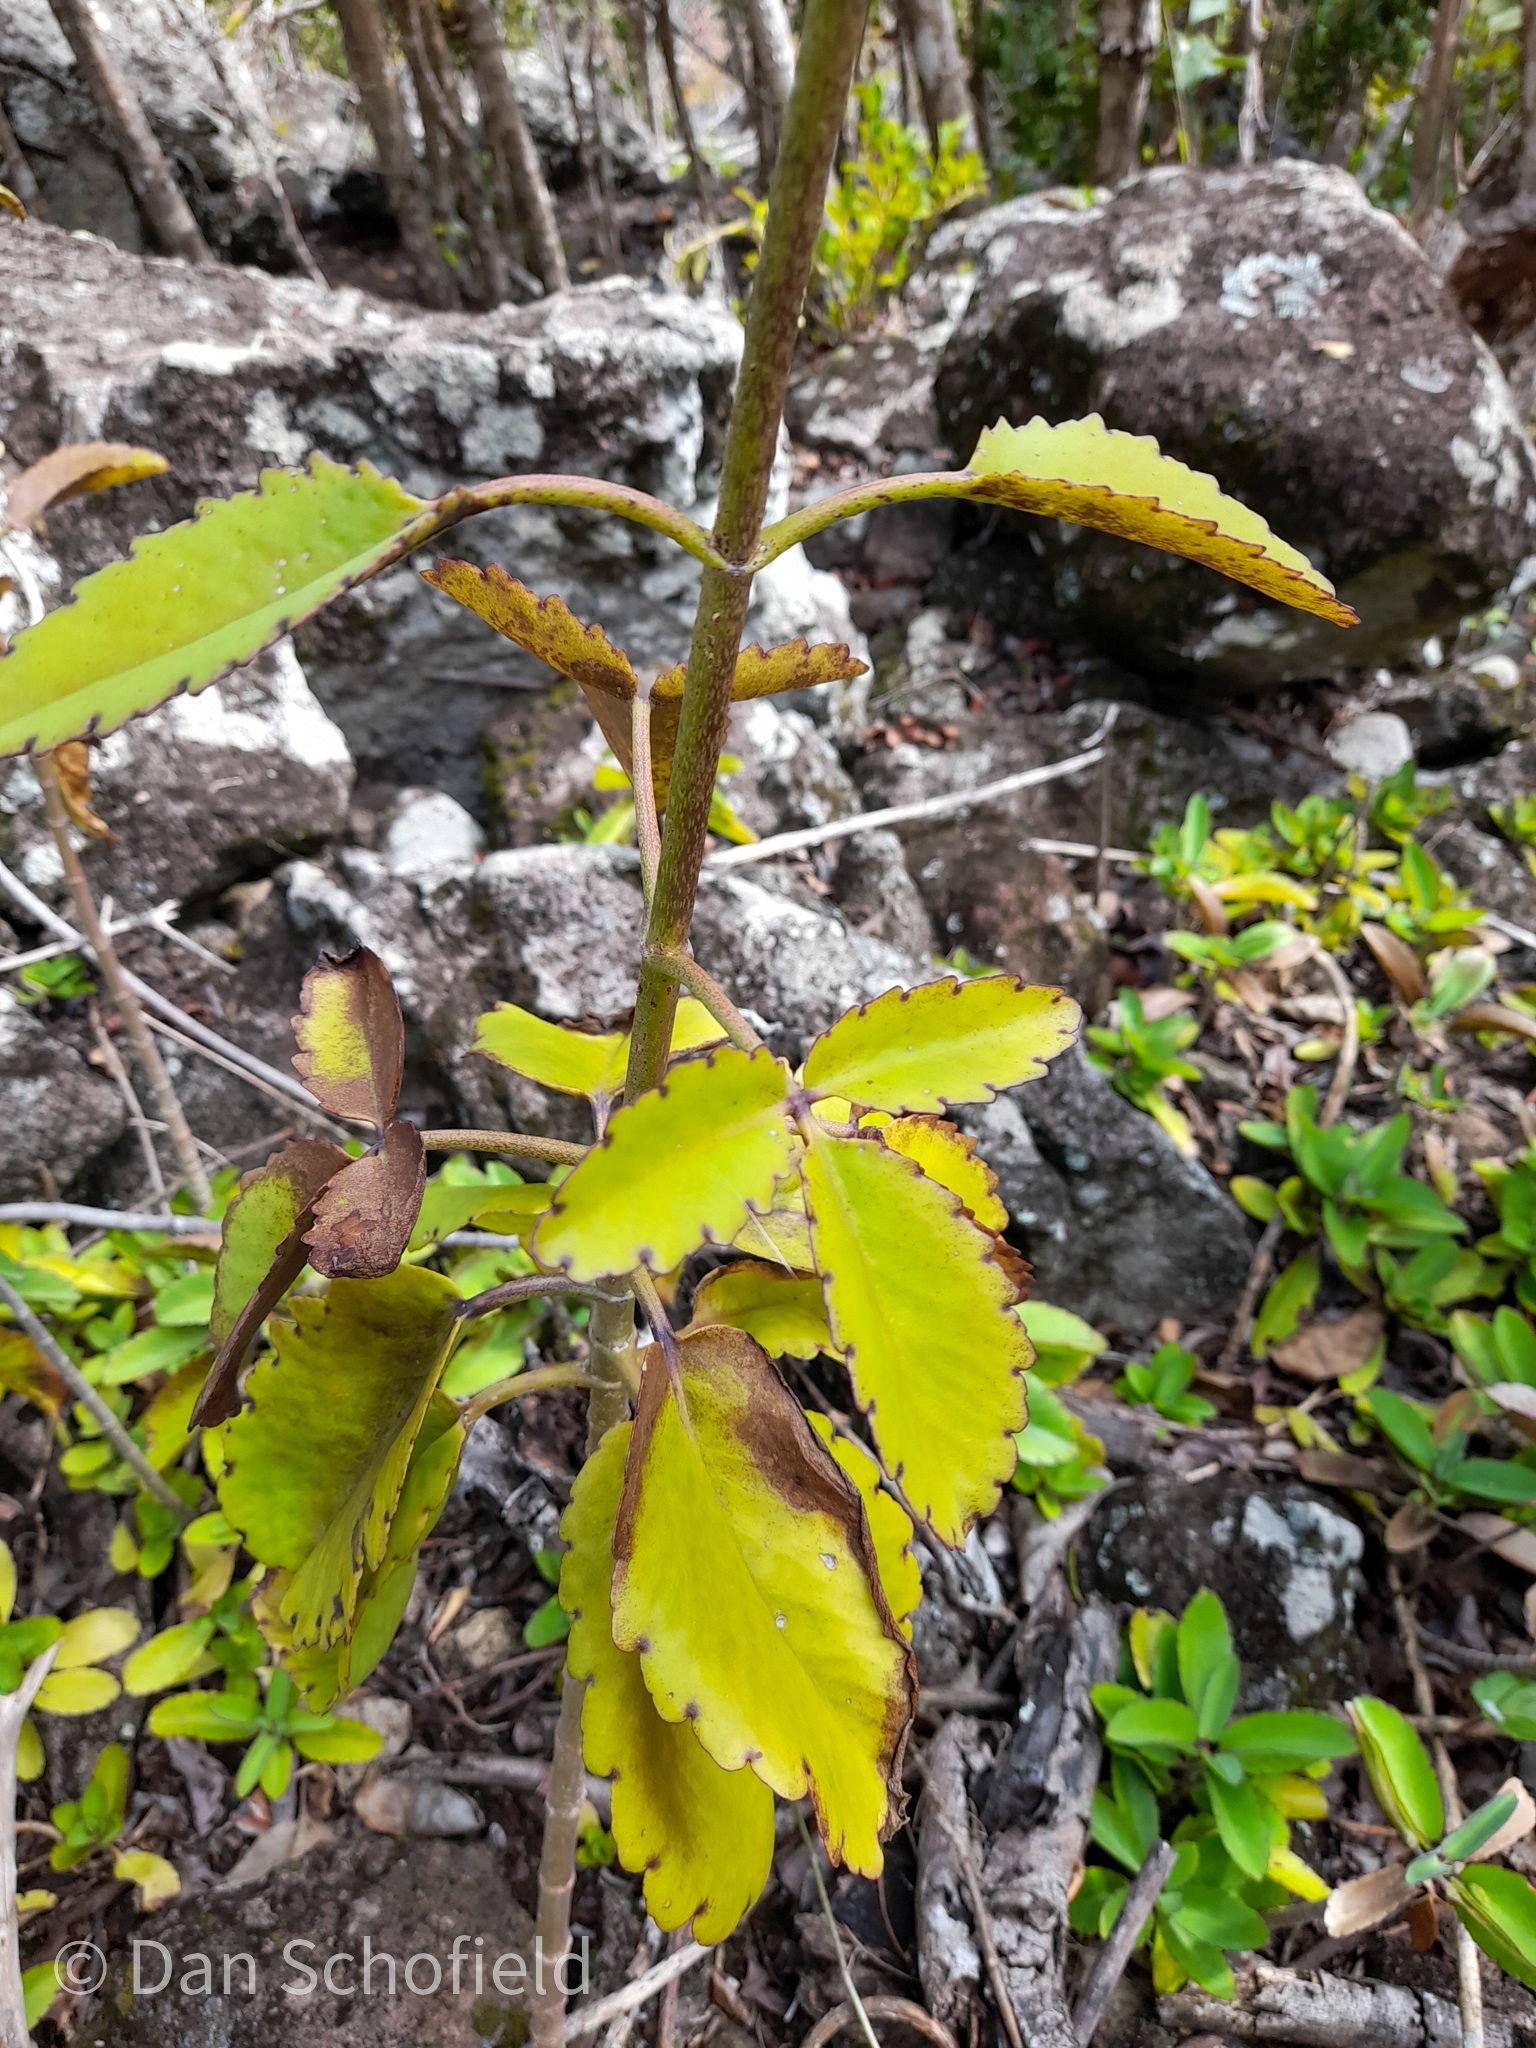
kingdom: Plantae
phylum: Tracheophyta
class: Magnoliopsida
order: Saxifragales
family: Crassulaceae
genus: Kalanchoe
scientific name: Kalanchoe pinnata
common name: Cathedral bells
